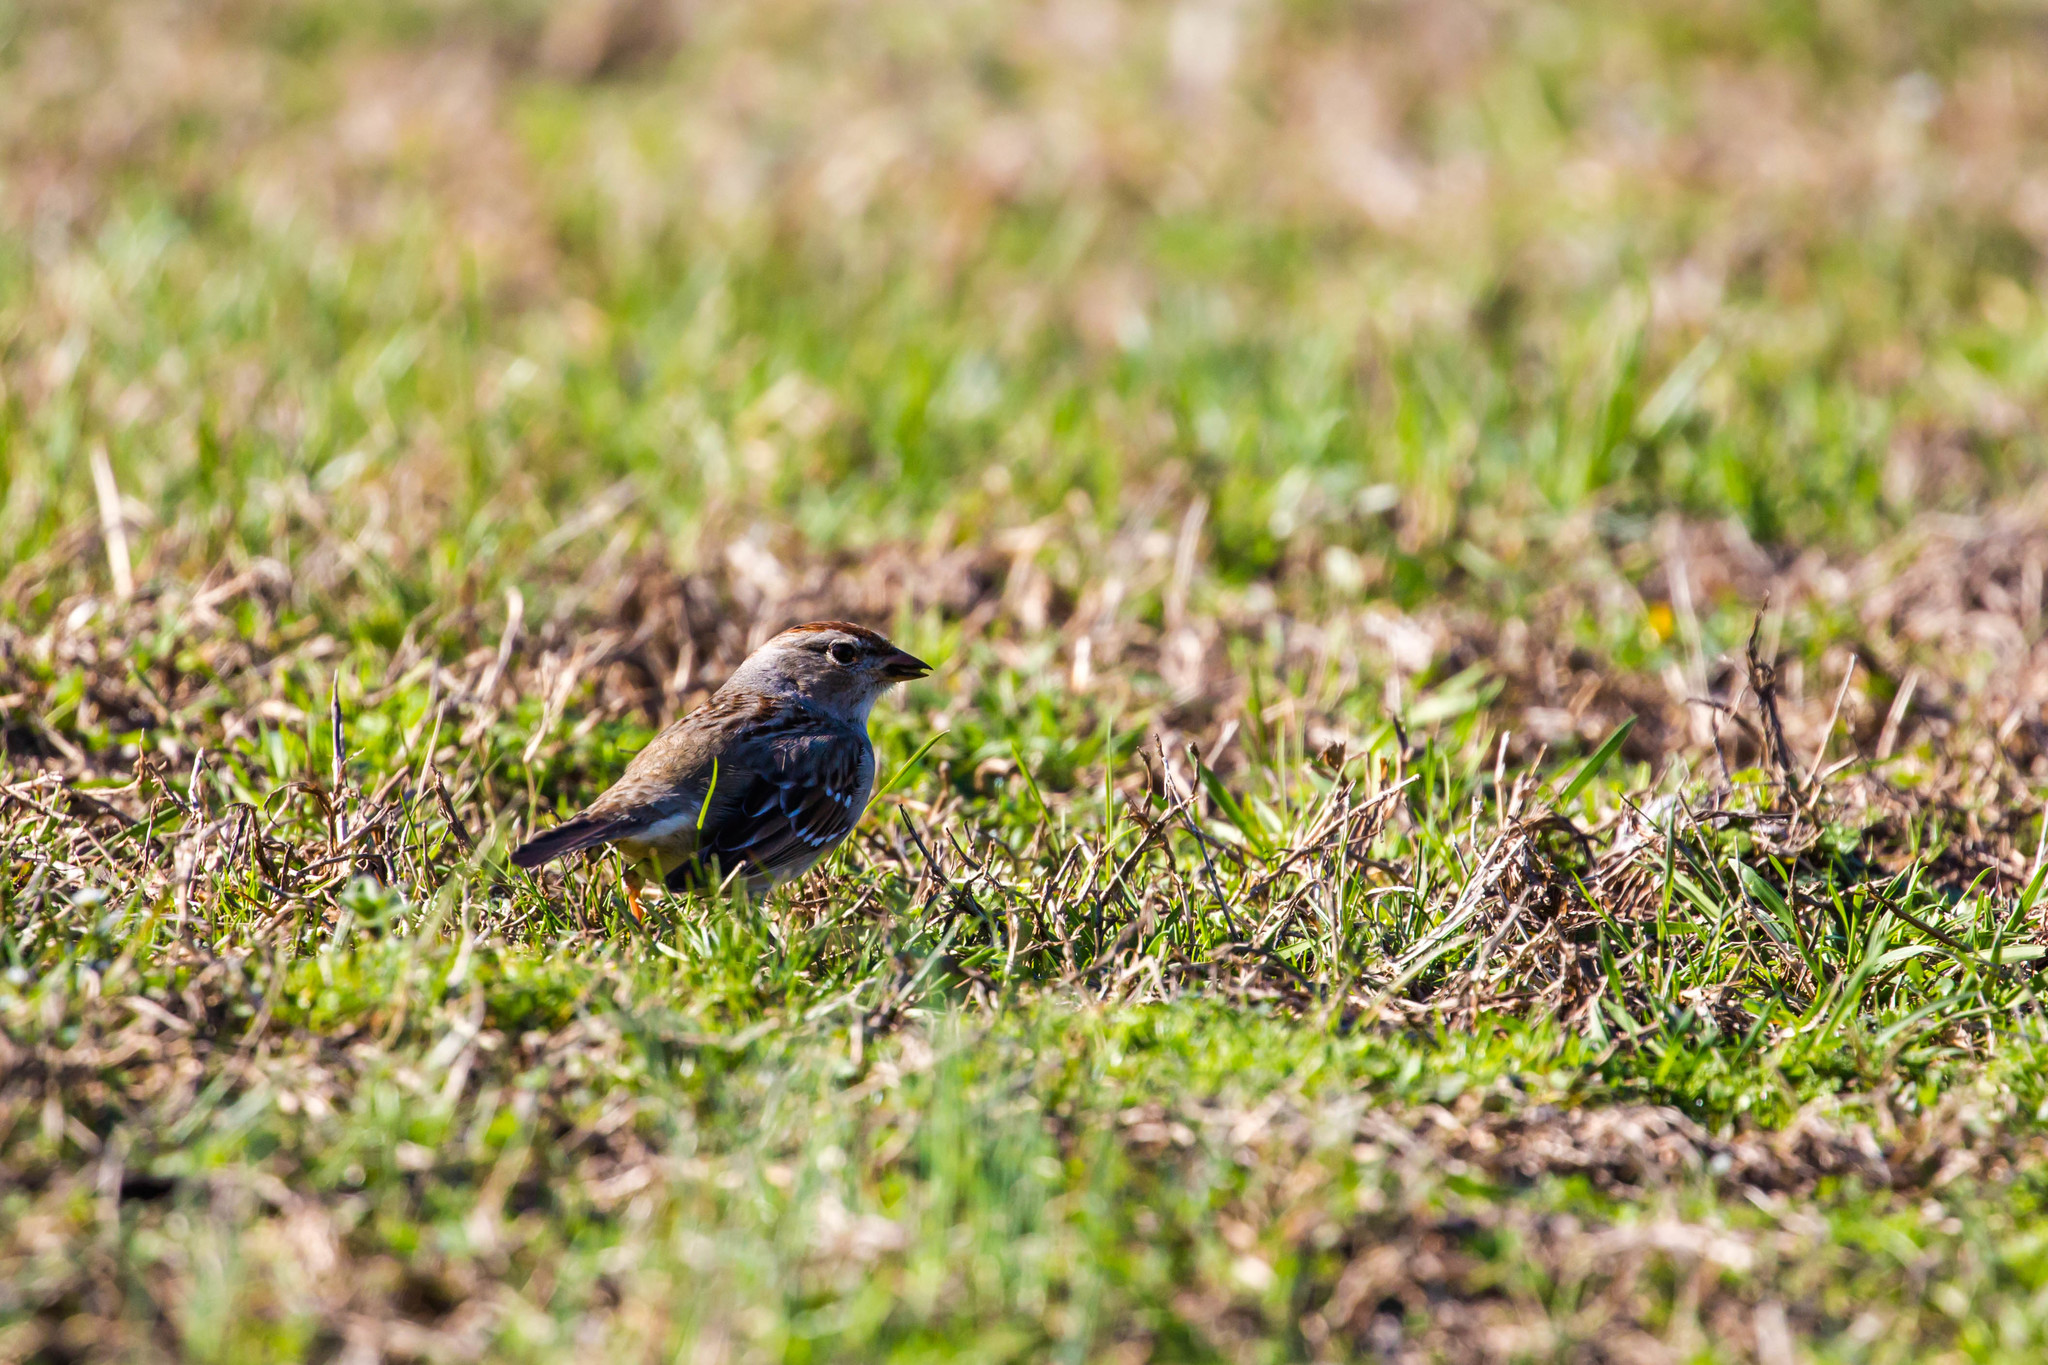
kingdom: Animalia
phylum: Chordata
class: Aves
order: Passeriformes
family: Passerellidae
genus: Zonotrichia
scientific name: Zonotrichia leucophrys
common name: White-crowned sparrow
